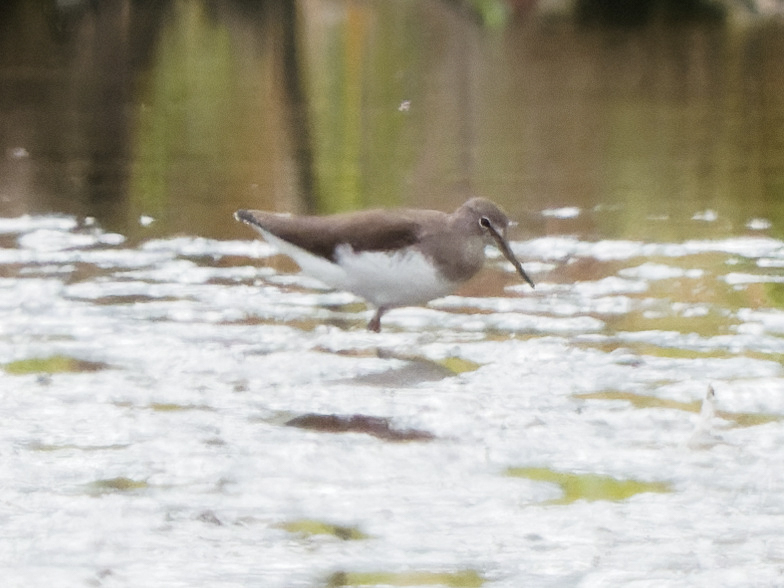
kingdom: Animalia
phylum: Chordata
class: Aves
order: Charadriiformes
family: Scolopacidae
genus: Tringa
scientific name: Tringa ochropus
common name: Green sandpiper
